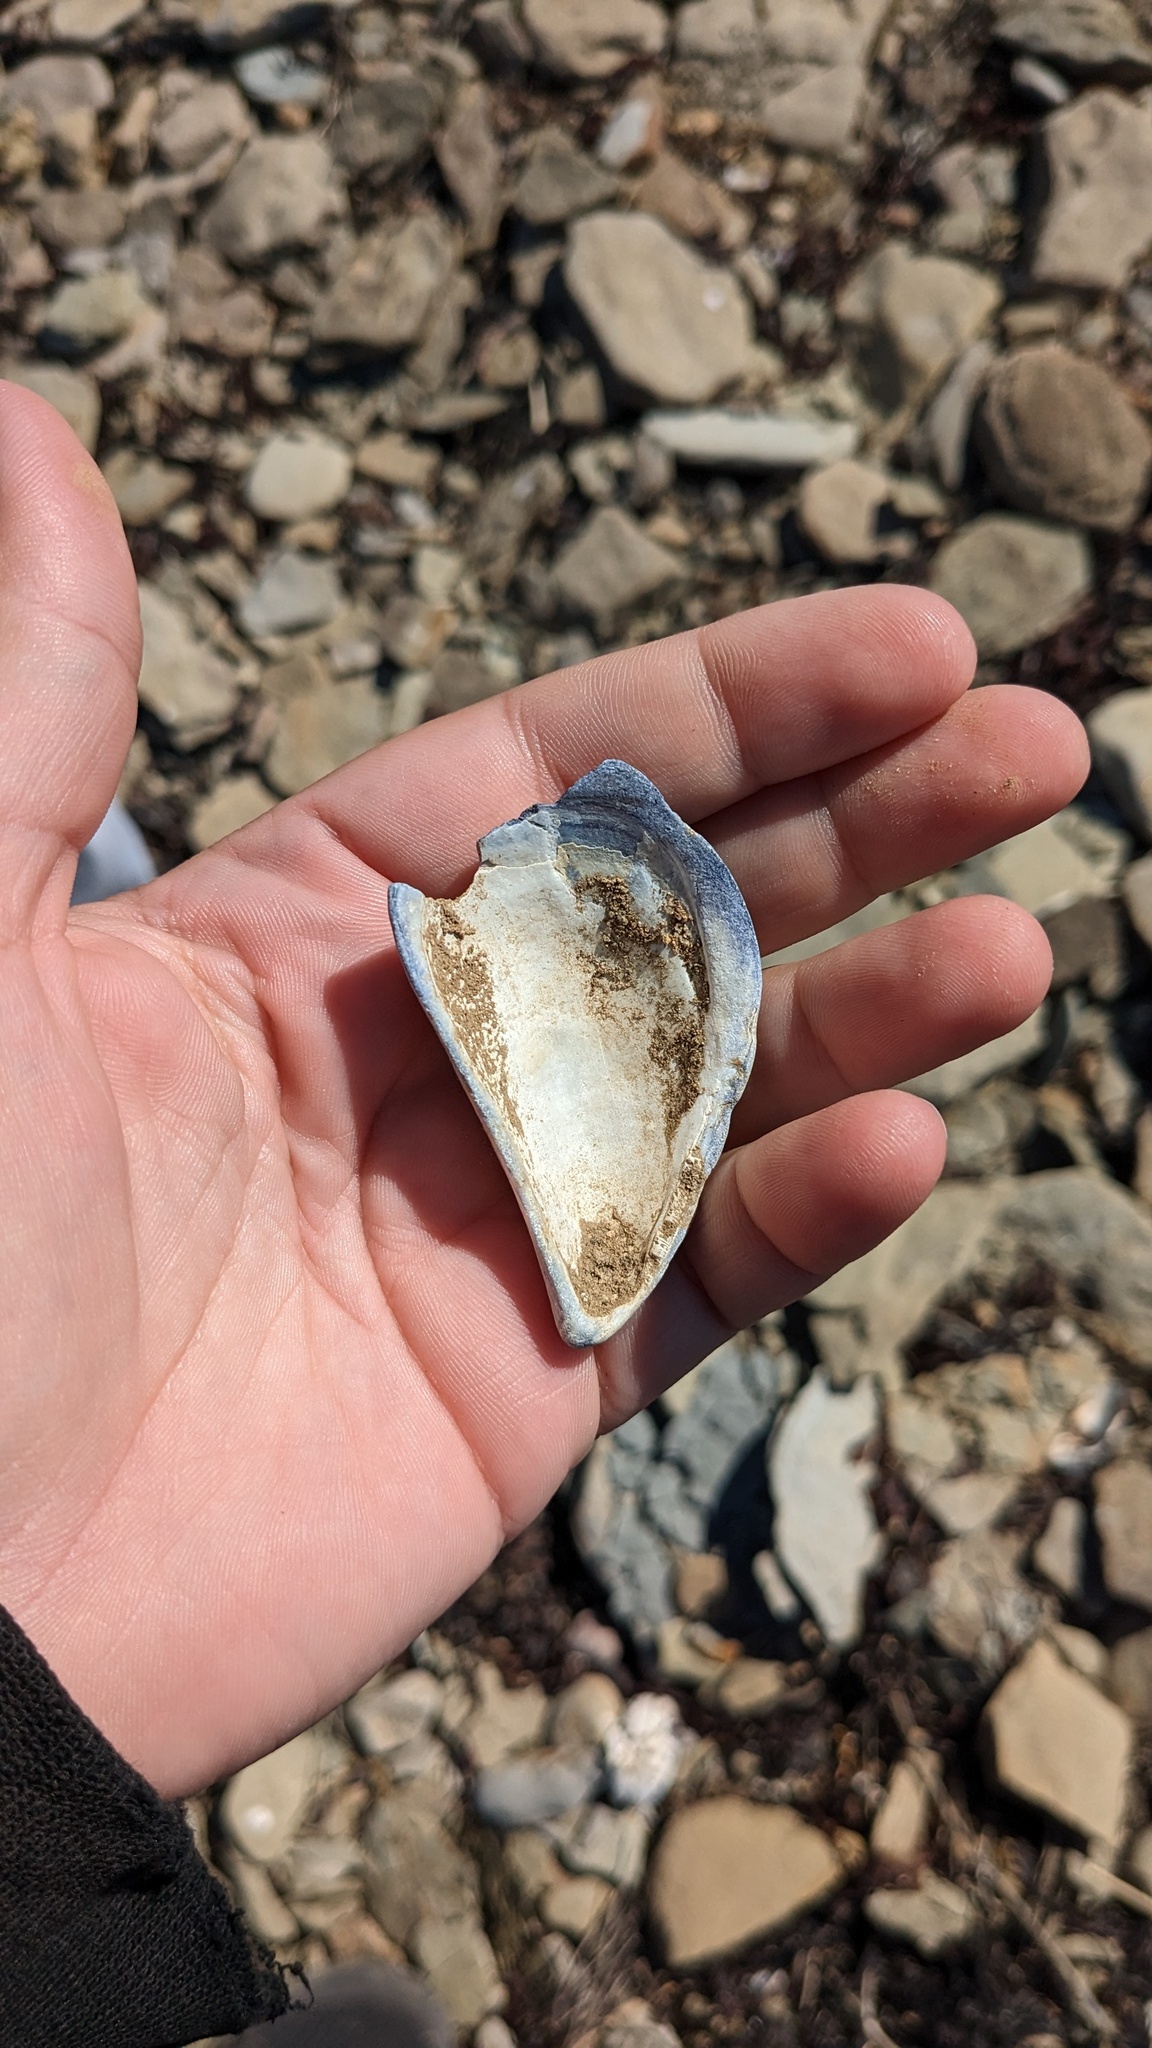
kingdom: Animalia
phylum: Mollusca
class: Bivalvia
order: Mytilida
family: Mytilidae
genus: Mytilus
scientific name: Mytilus
